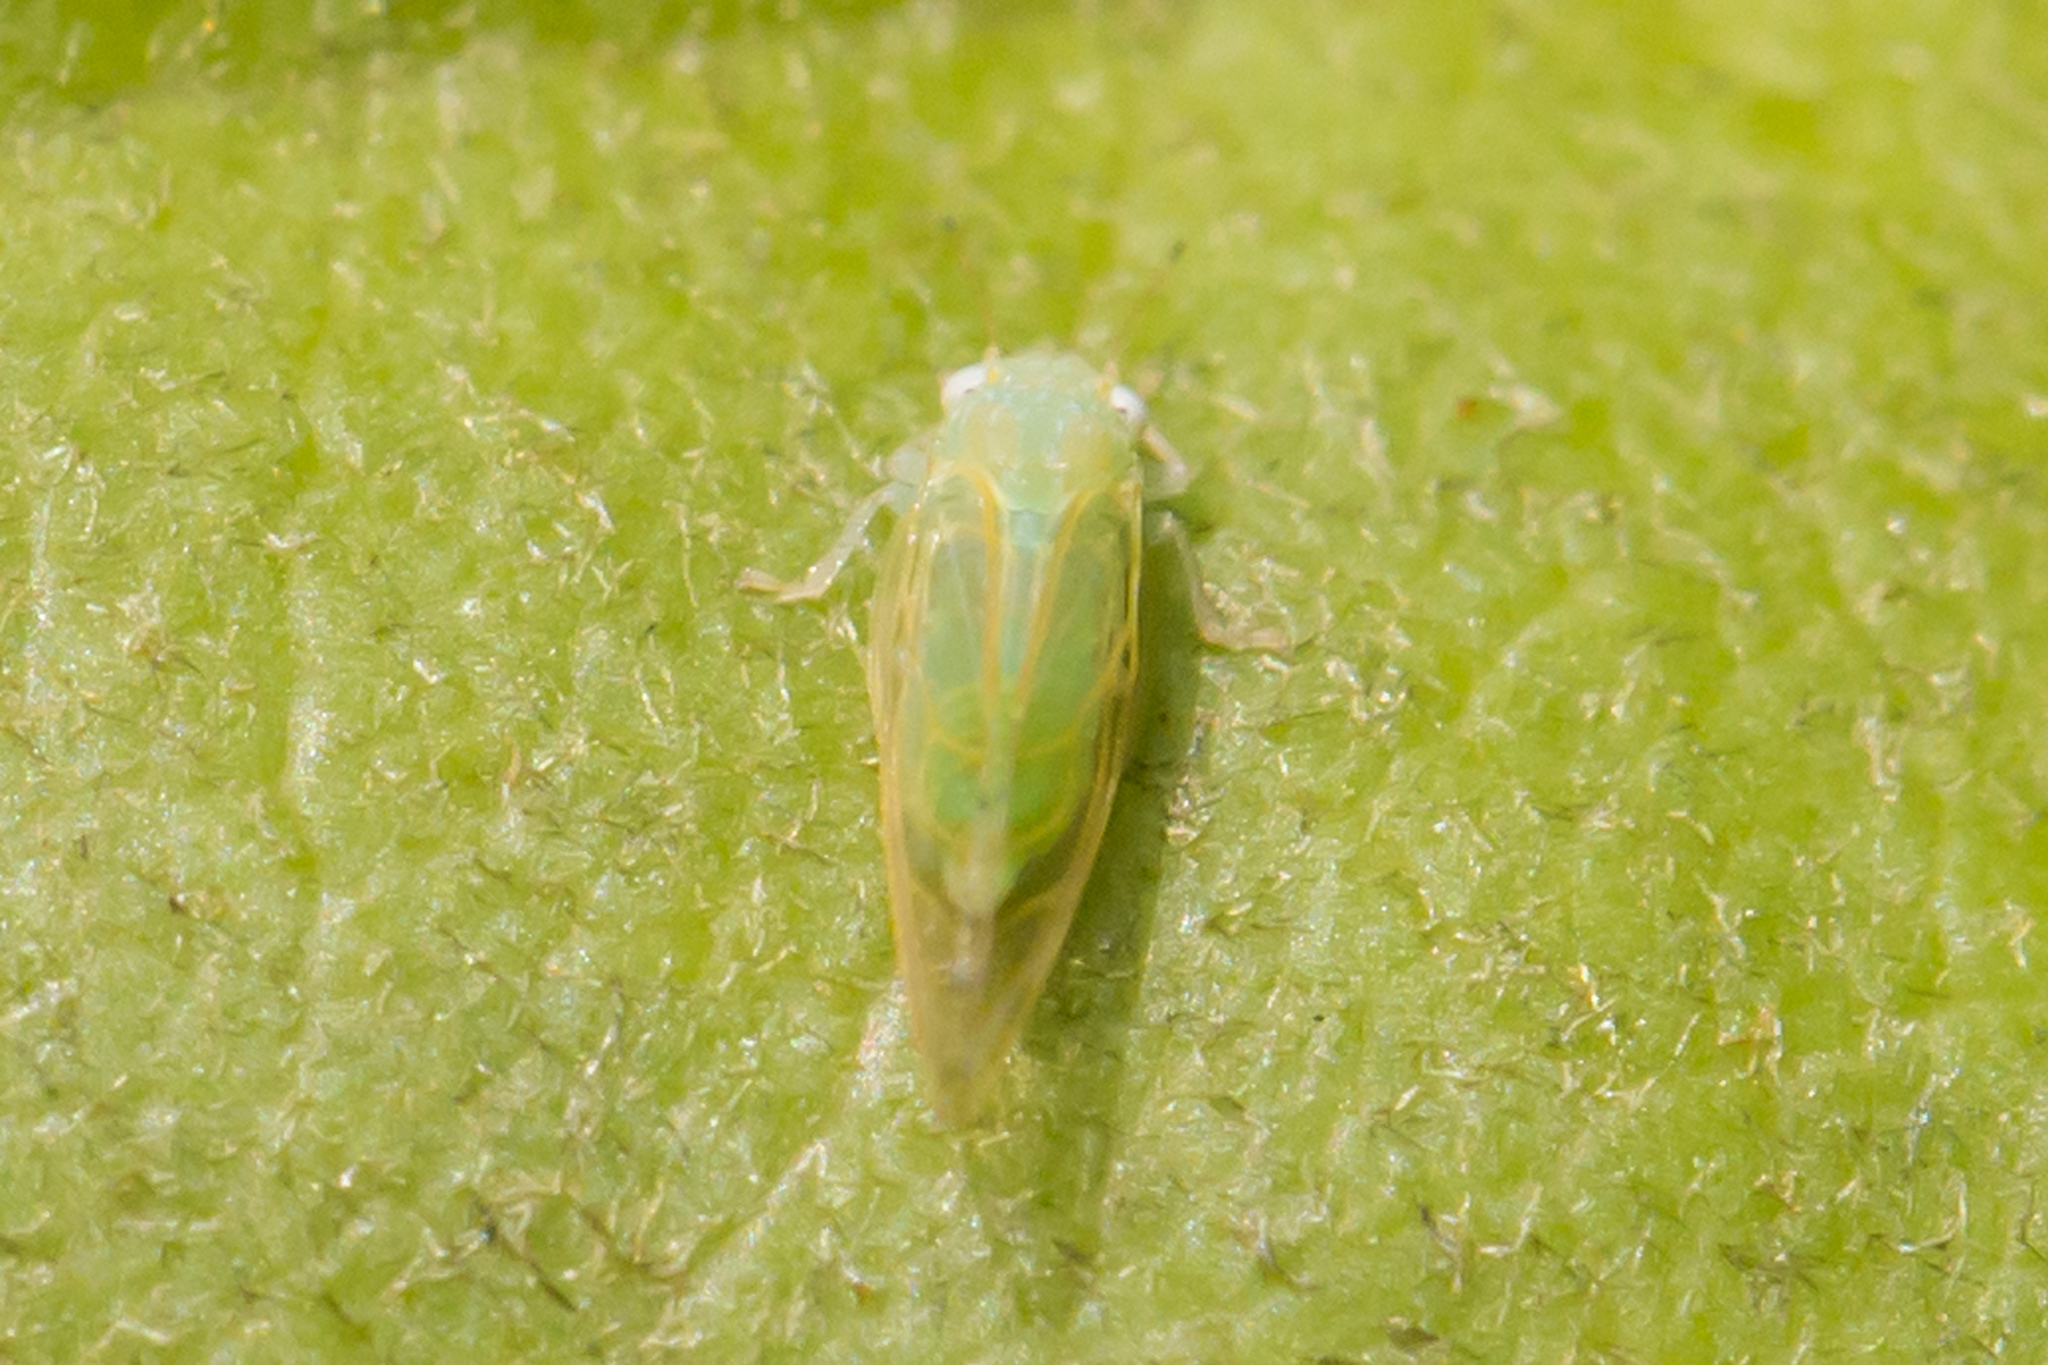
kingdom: Animalia
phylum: Arthropoda
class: Insecta
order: Hemiptera
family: Psyllidae
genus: Spanioneura
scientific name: Spanioneura fonscolombii
